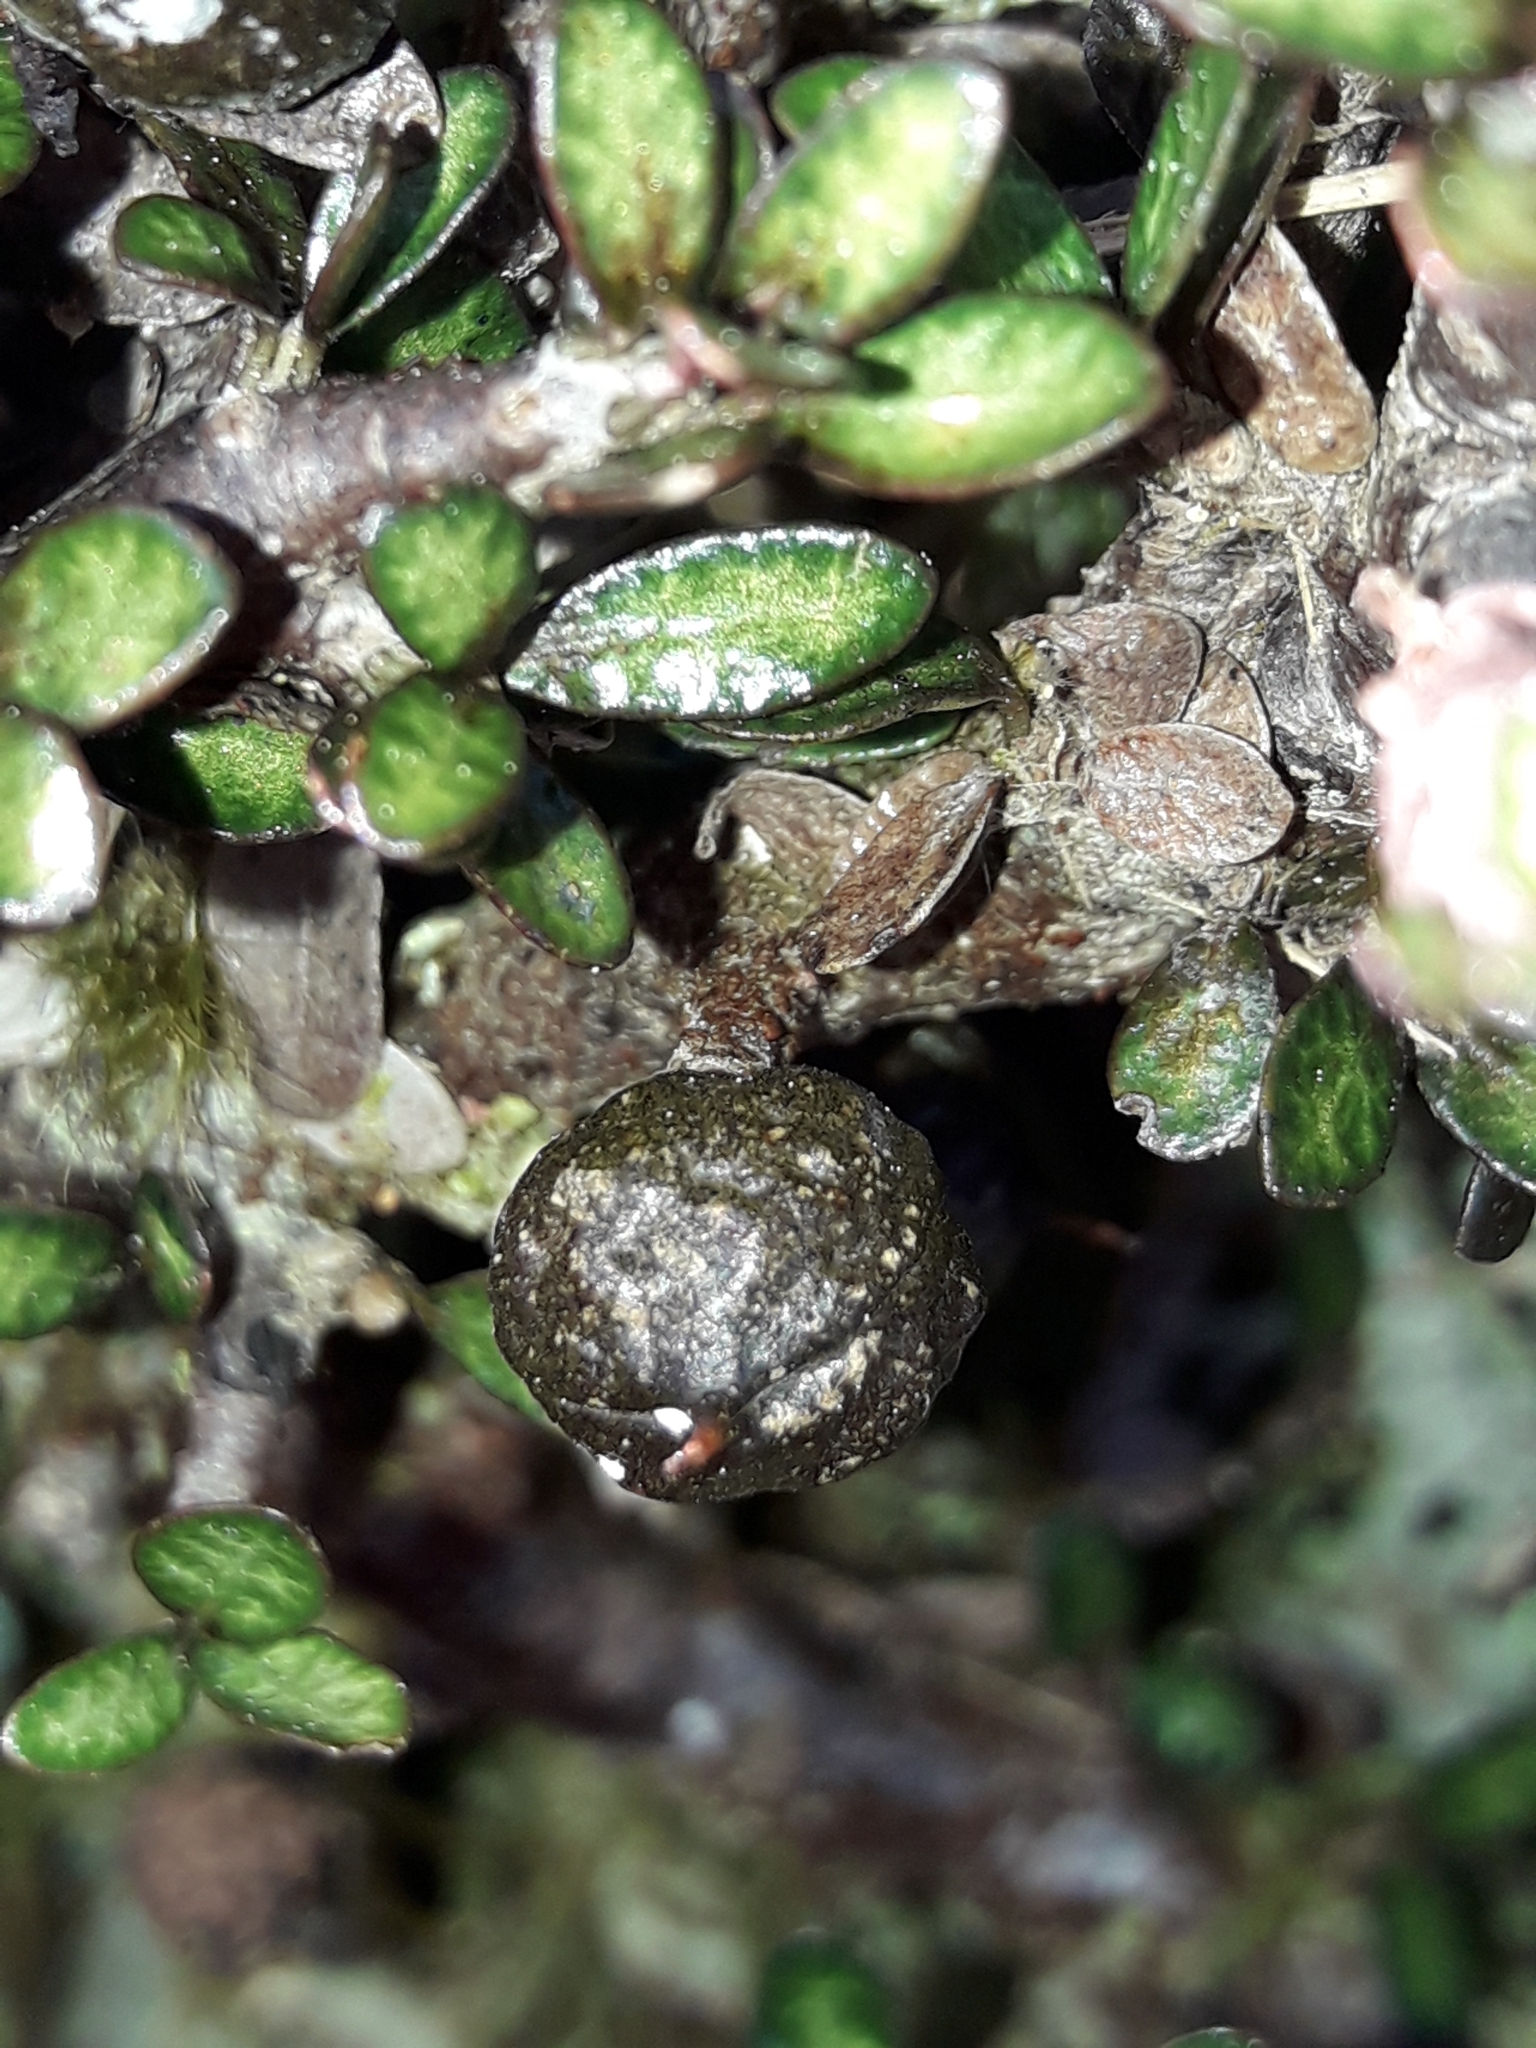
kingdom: Plantae
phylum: Tracheophyta
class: Magnoliopsida
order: Apiales
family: Pittosporaceae
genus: Pittosporum
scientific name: Pittosporum rigidum
